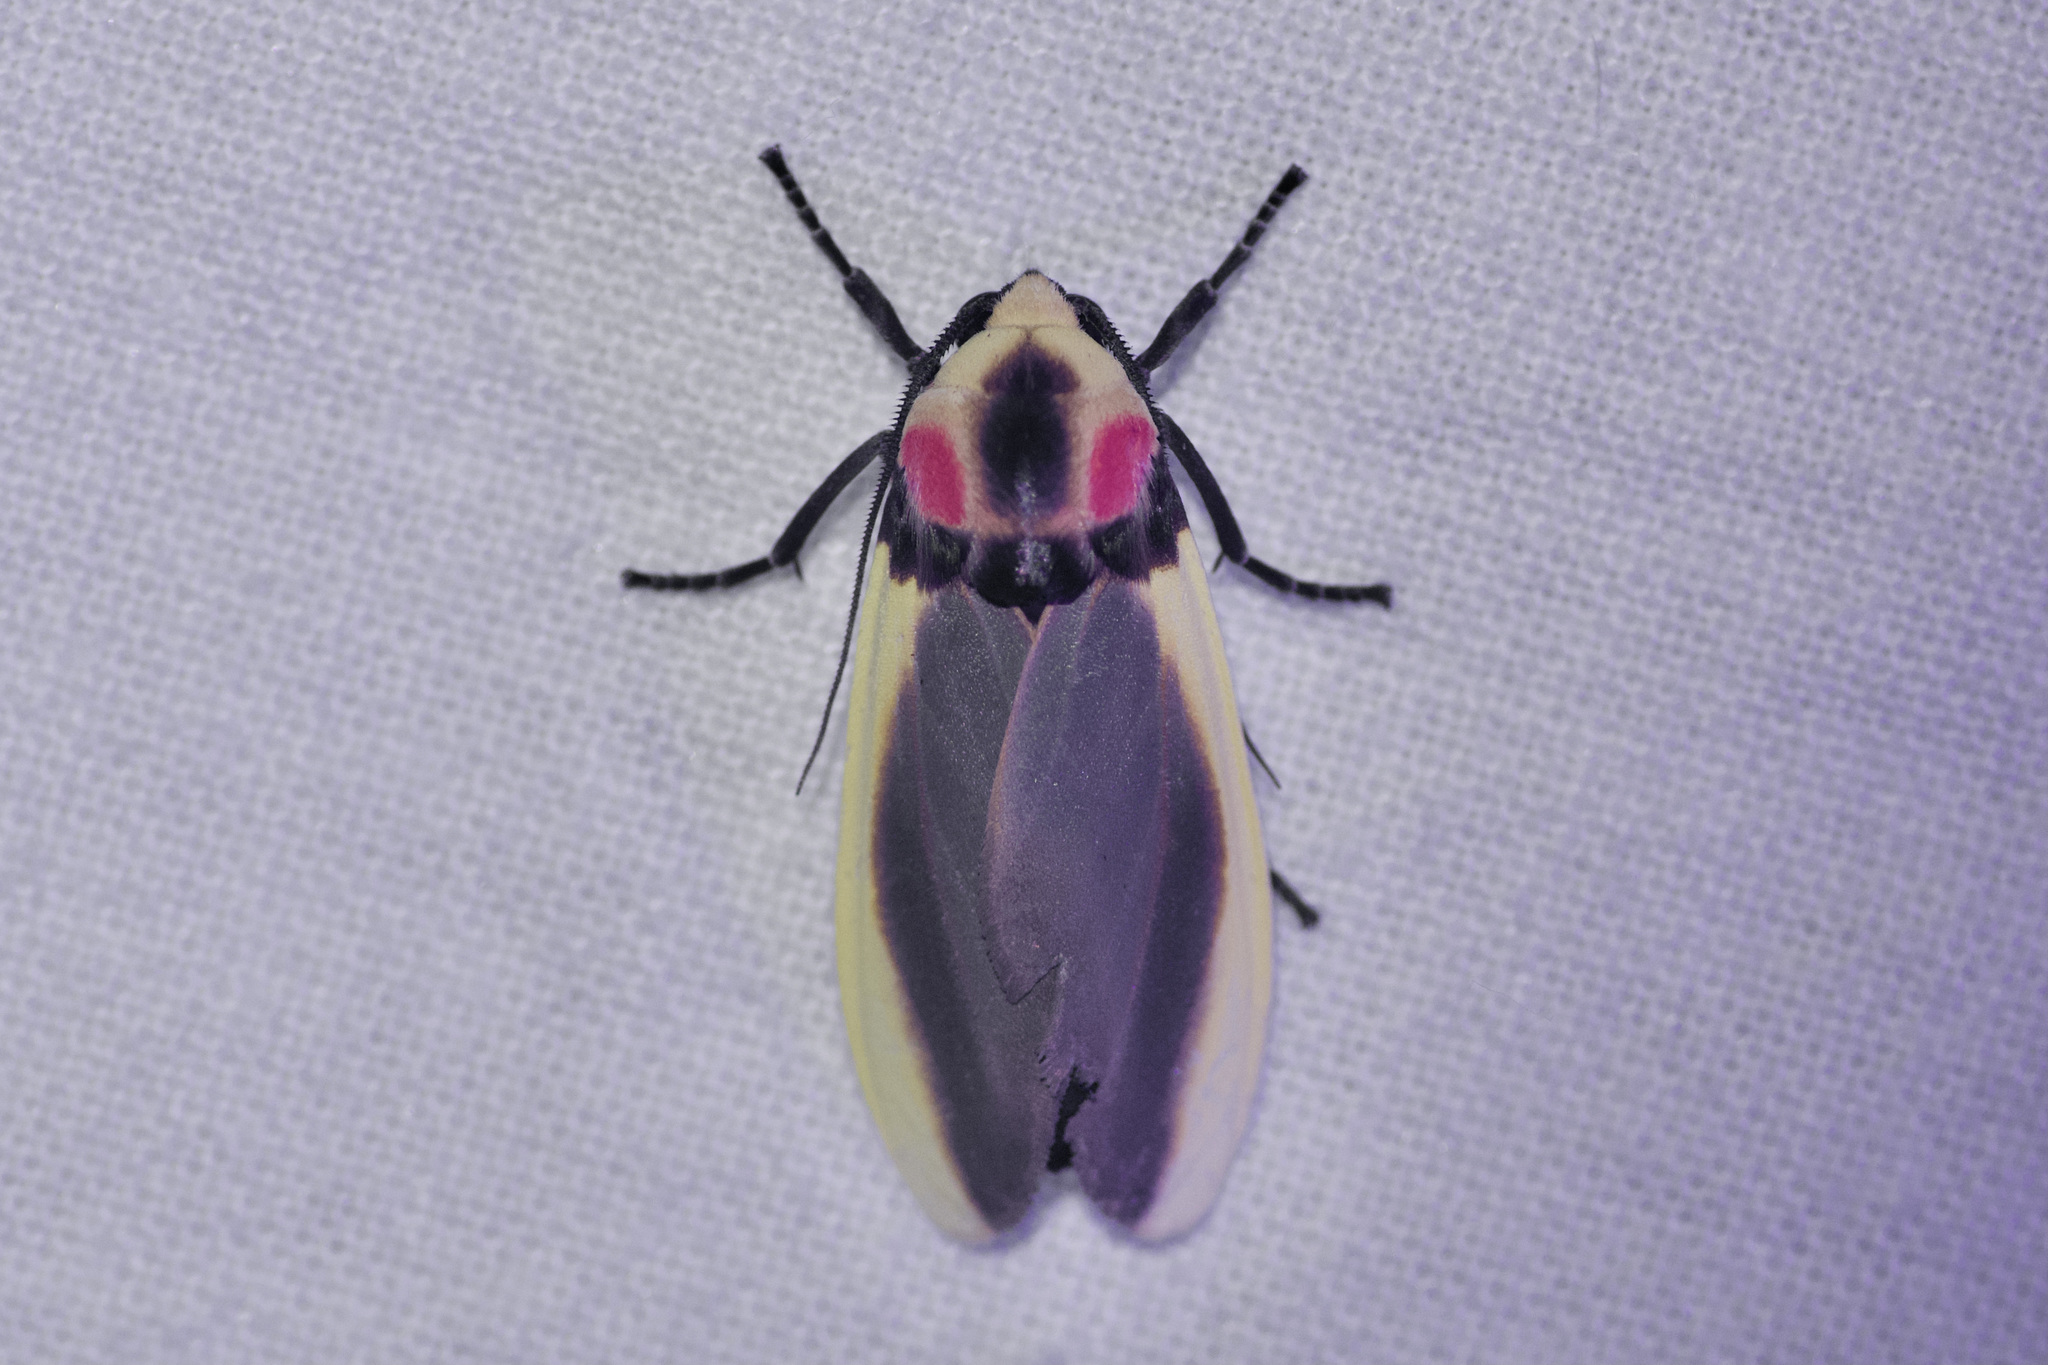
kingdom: Animalia
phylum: Arthropoda
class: Insecta
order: Lepidoptera
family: Erebidae
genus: Cratoplastis
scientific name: Cratoplastis diluta
